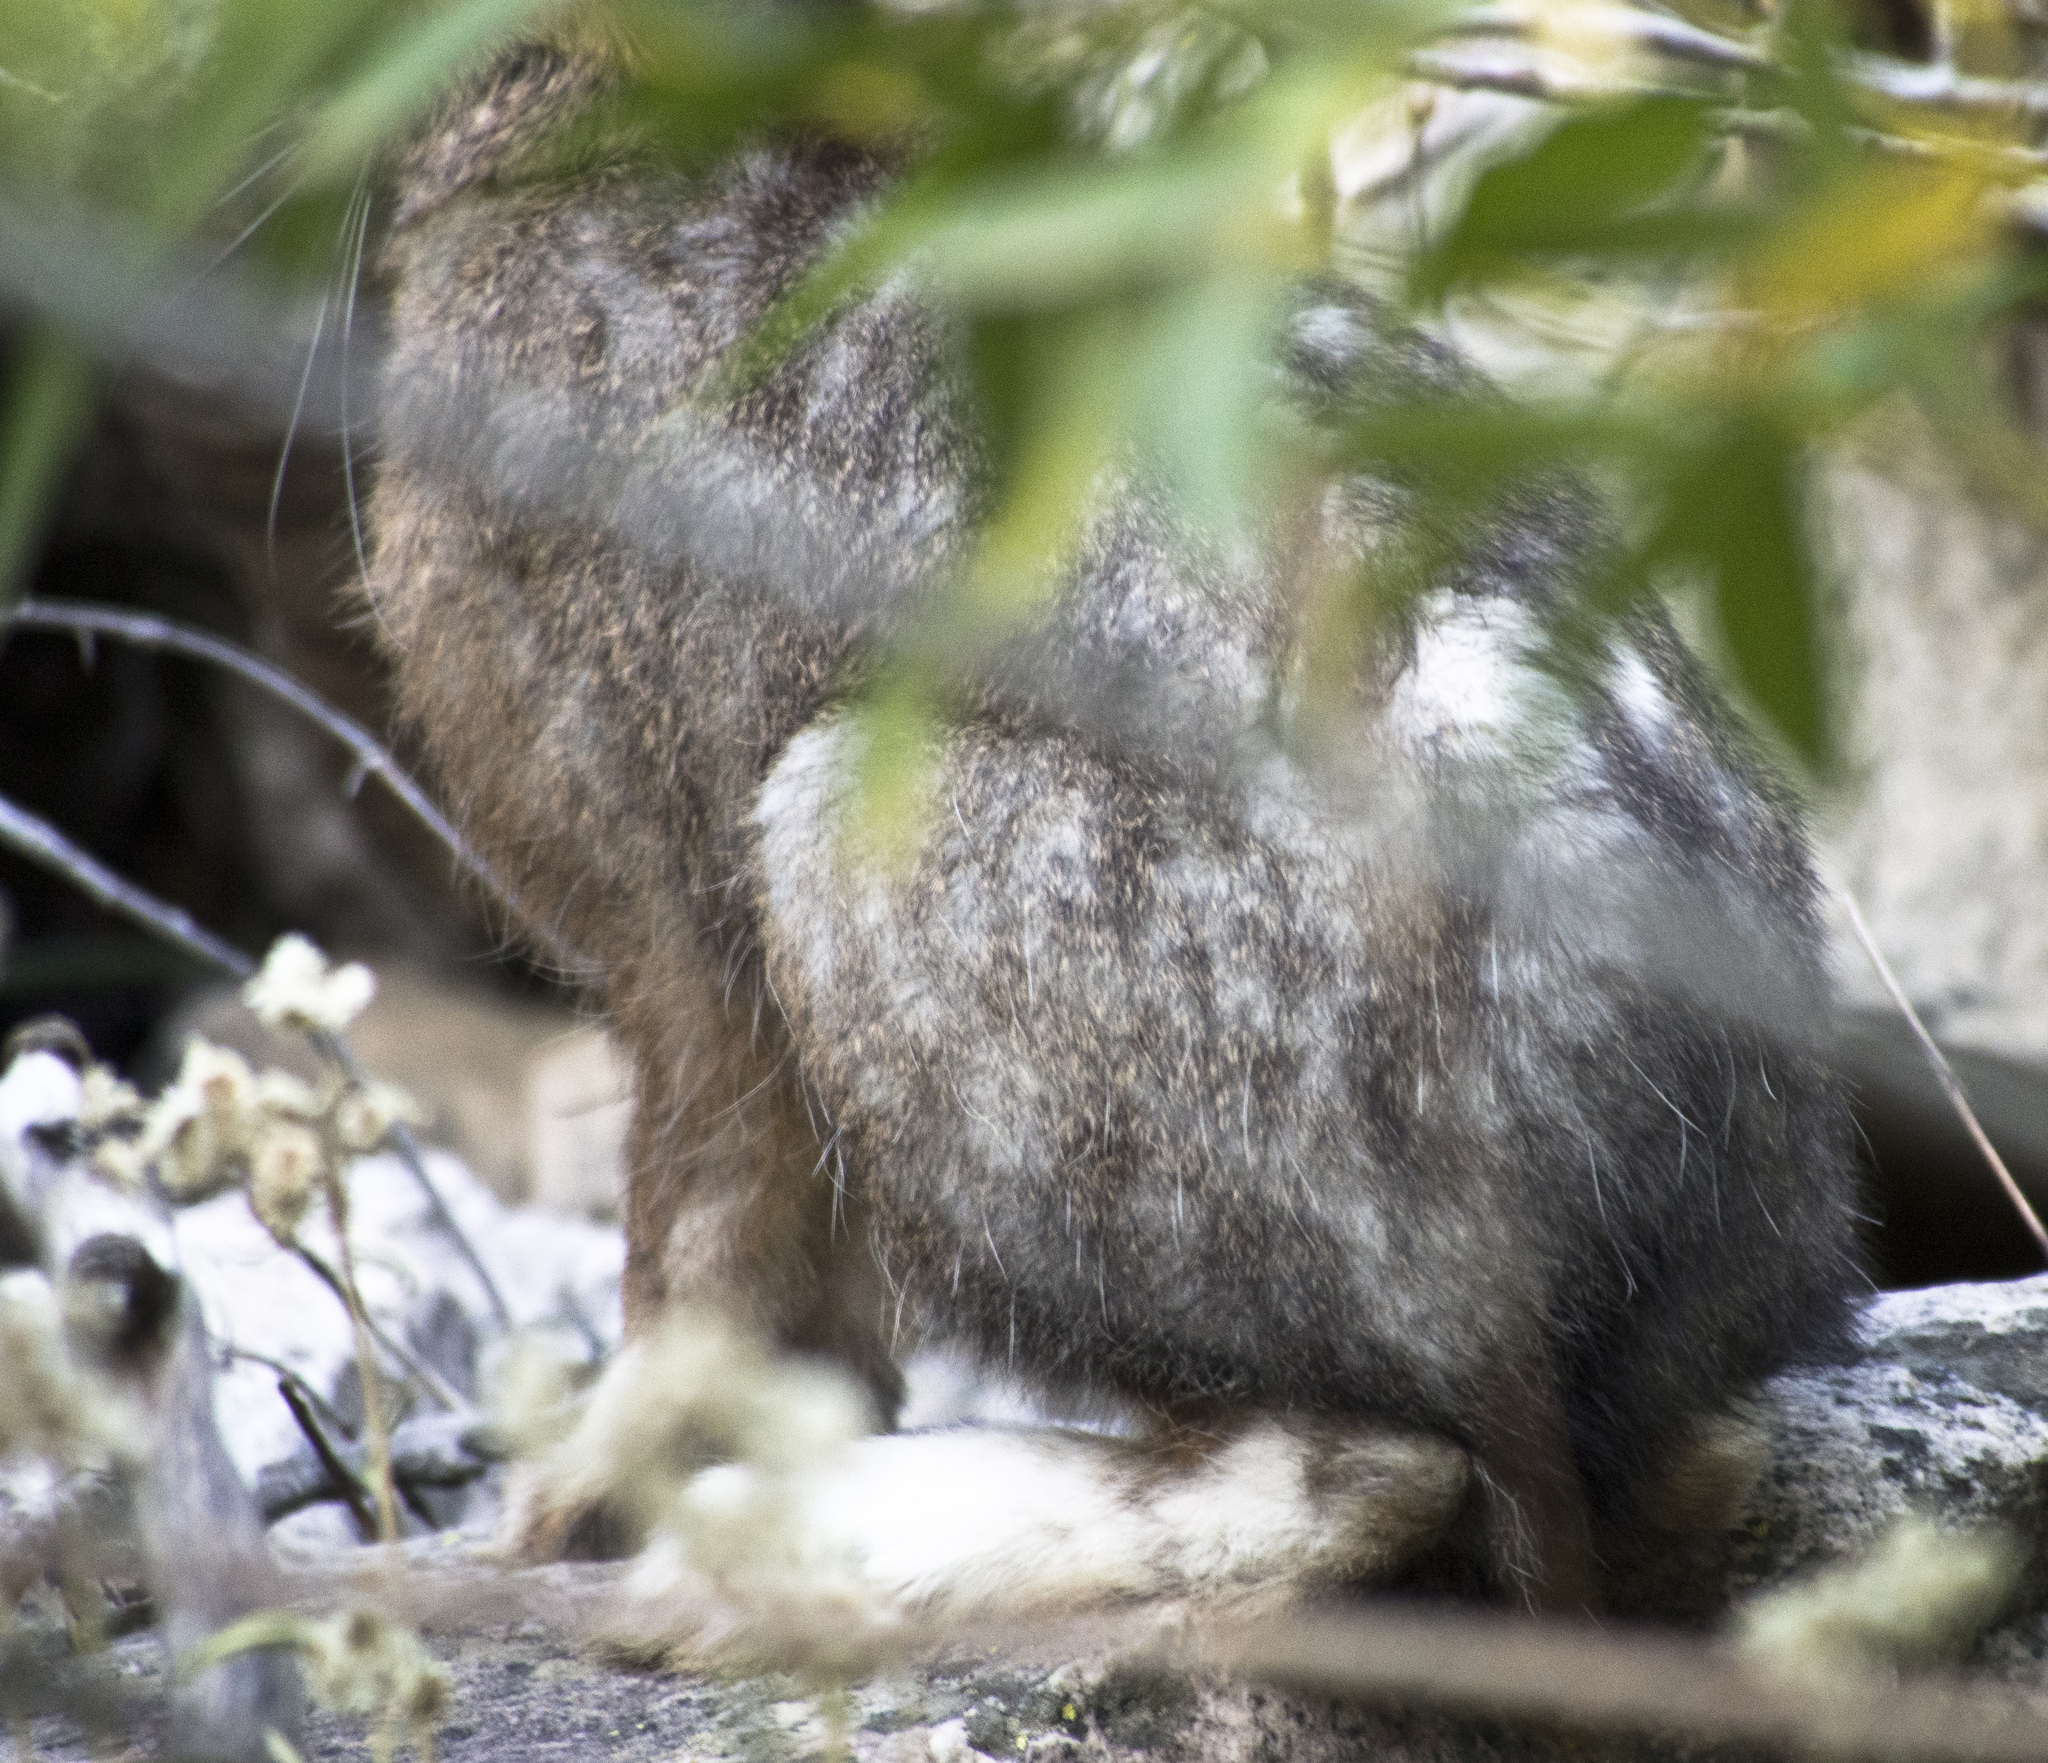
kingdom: Animalia
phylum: Chordata
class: Mammalia
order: Lagomorpha
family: Leporidae
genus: Lepus
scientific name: Lepus americanus
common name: Snowshoe hare
